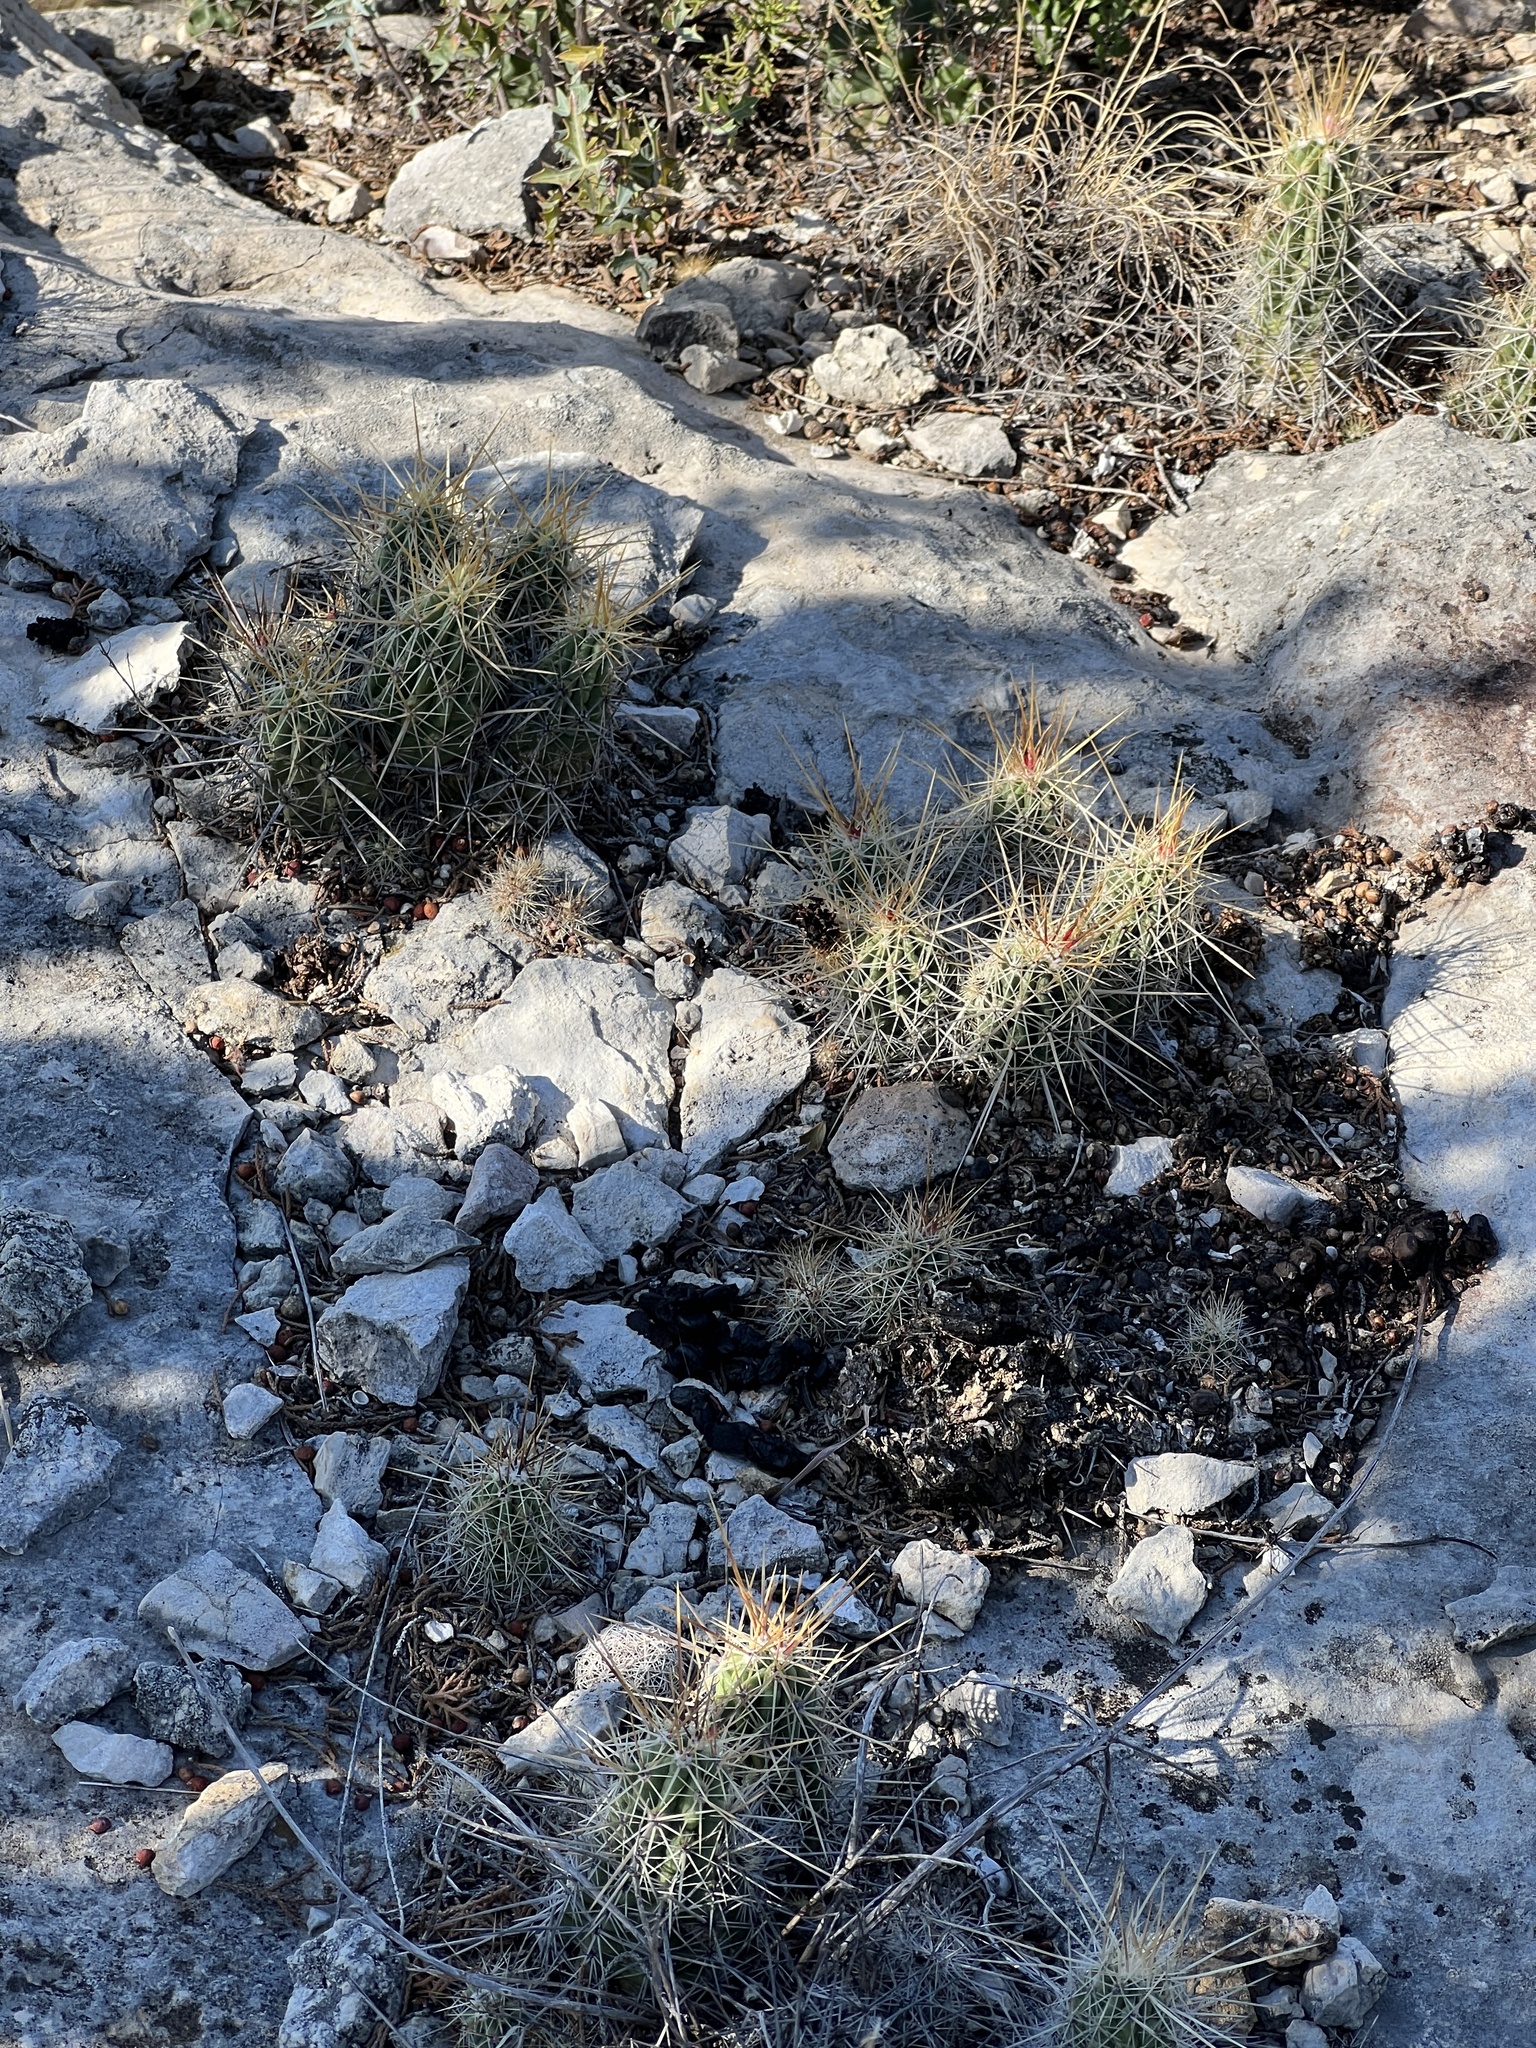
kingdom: Plantae
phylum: Tracheophyta
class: Magnoliopsida
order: Caryophyllales
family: Cactaceae
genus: Echinocereus
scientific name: Echinocereus enneacanthus
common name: Pitaya
